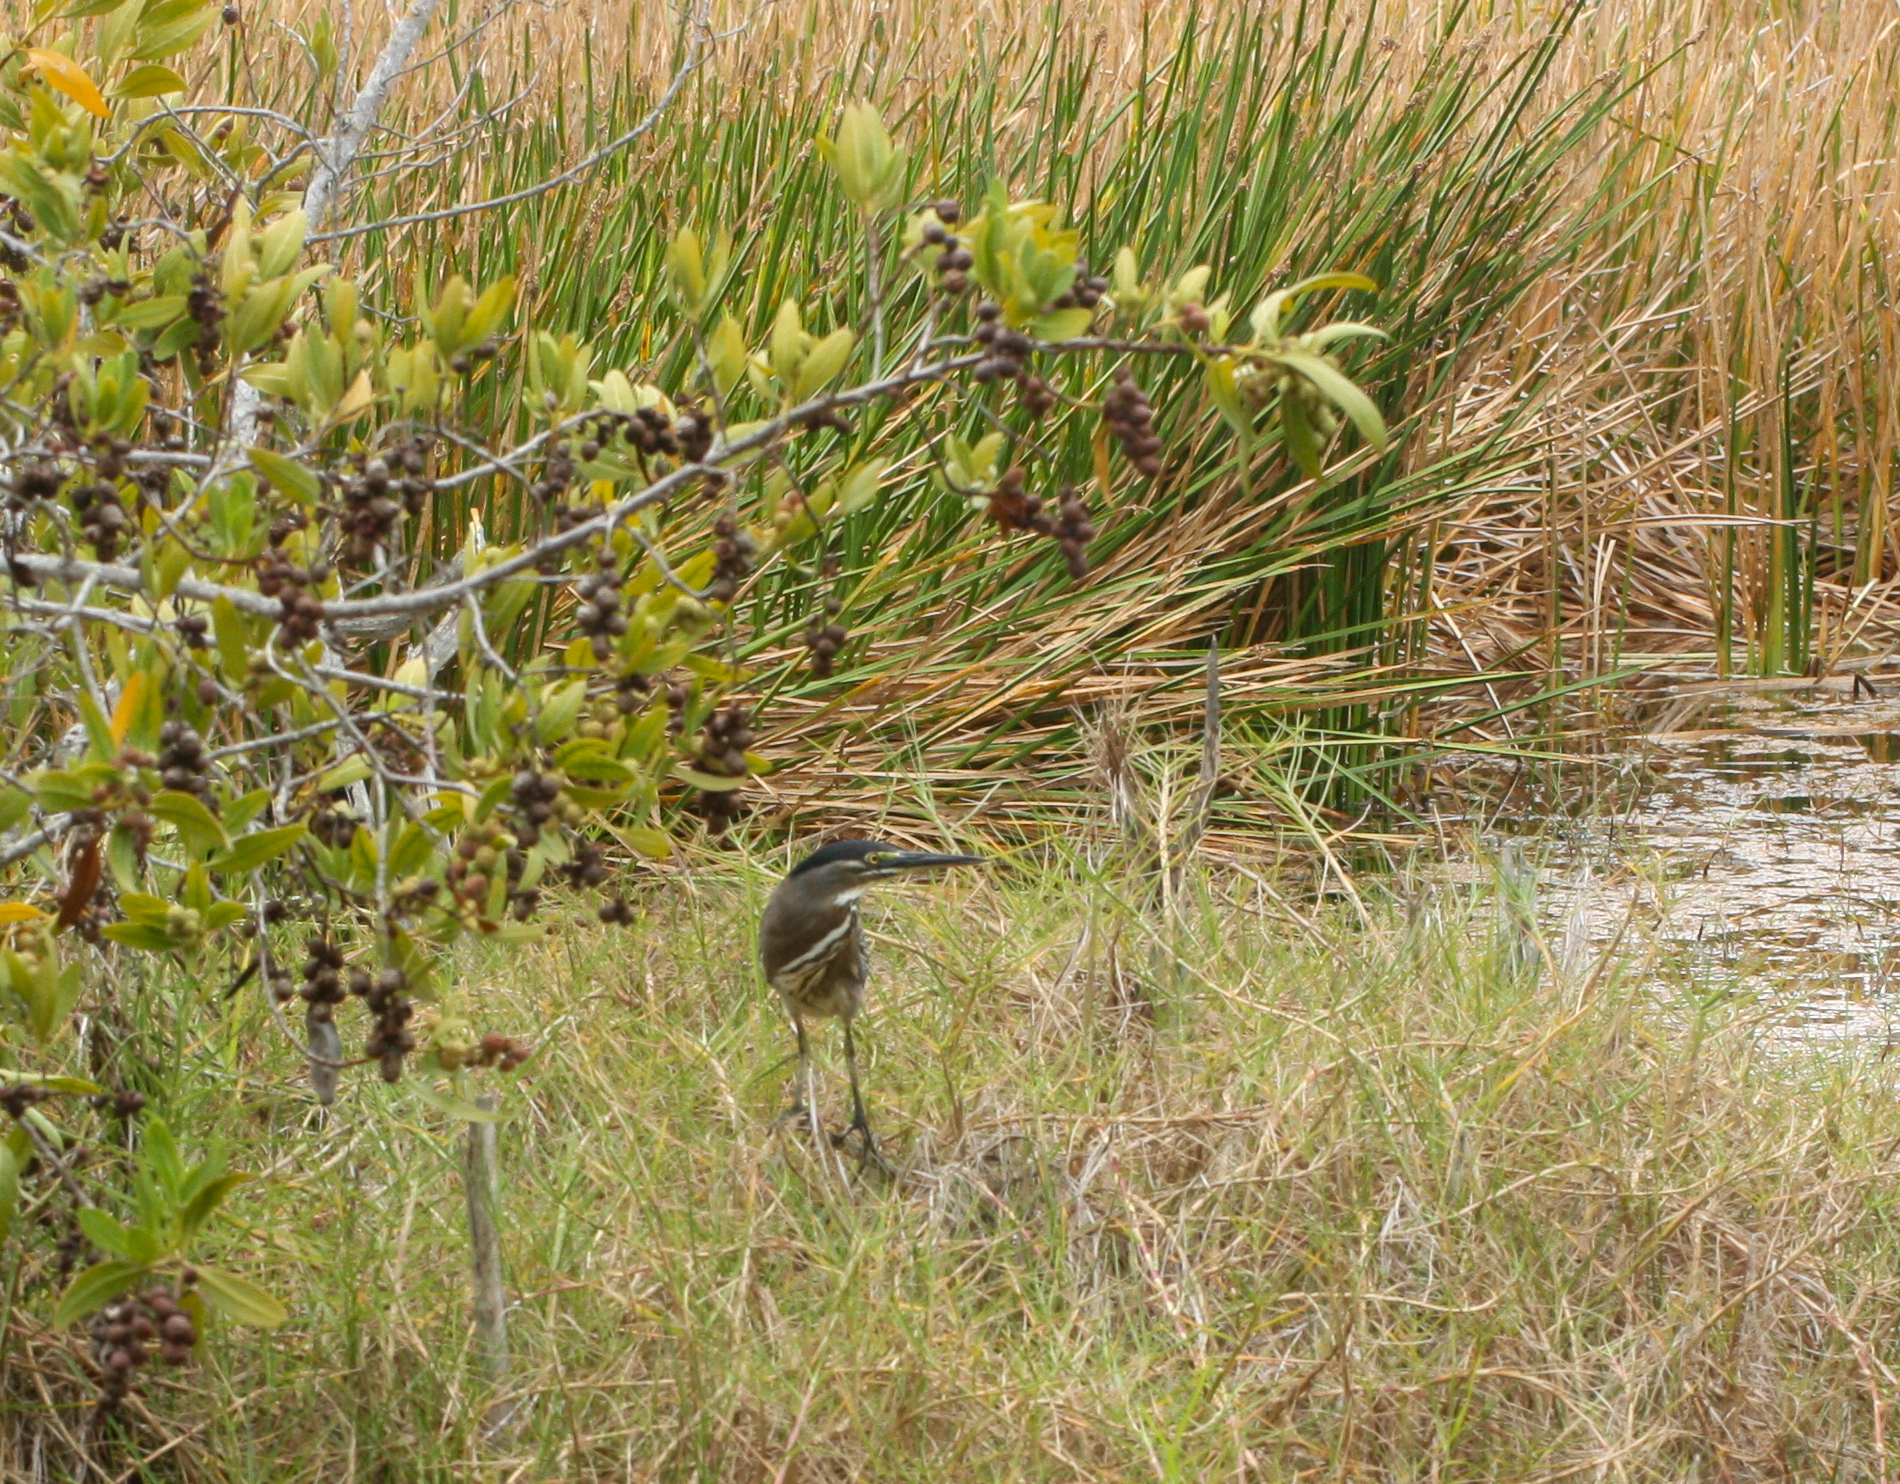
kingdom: Animalia
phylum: Chordata
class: Aves
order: Pelecaniformes
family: Ardeidae
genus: Butorides
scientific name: Butorides striata
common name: Striated heron
